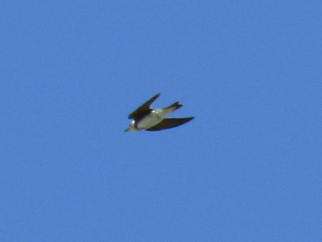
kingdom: Animalia
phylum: Chordata
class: Aves
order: Passeriformes
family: Hirundinidae
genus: Progne
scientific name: Progne tapera
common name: Brown-chested martin
